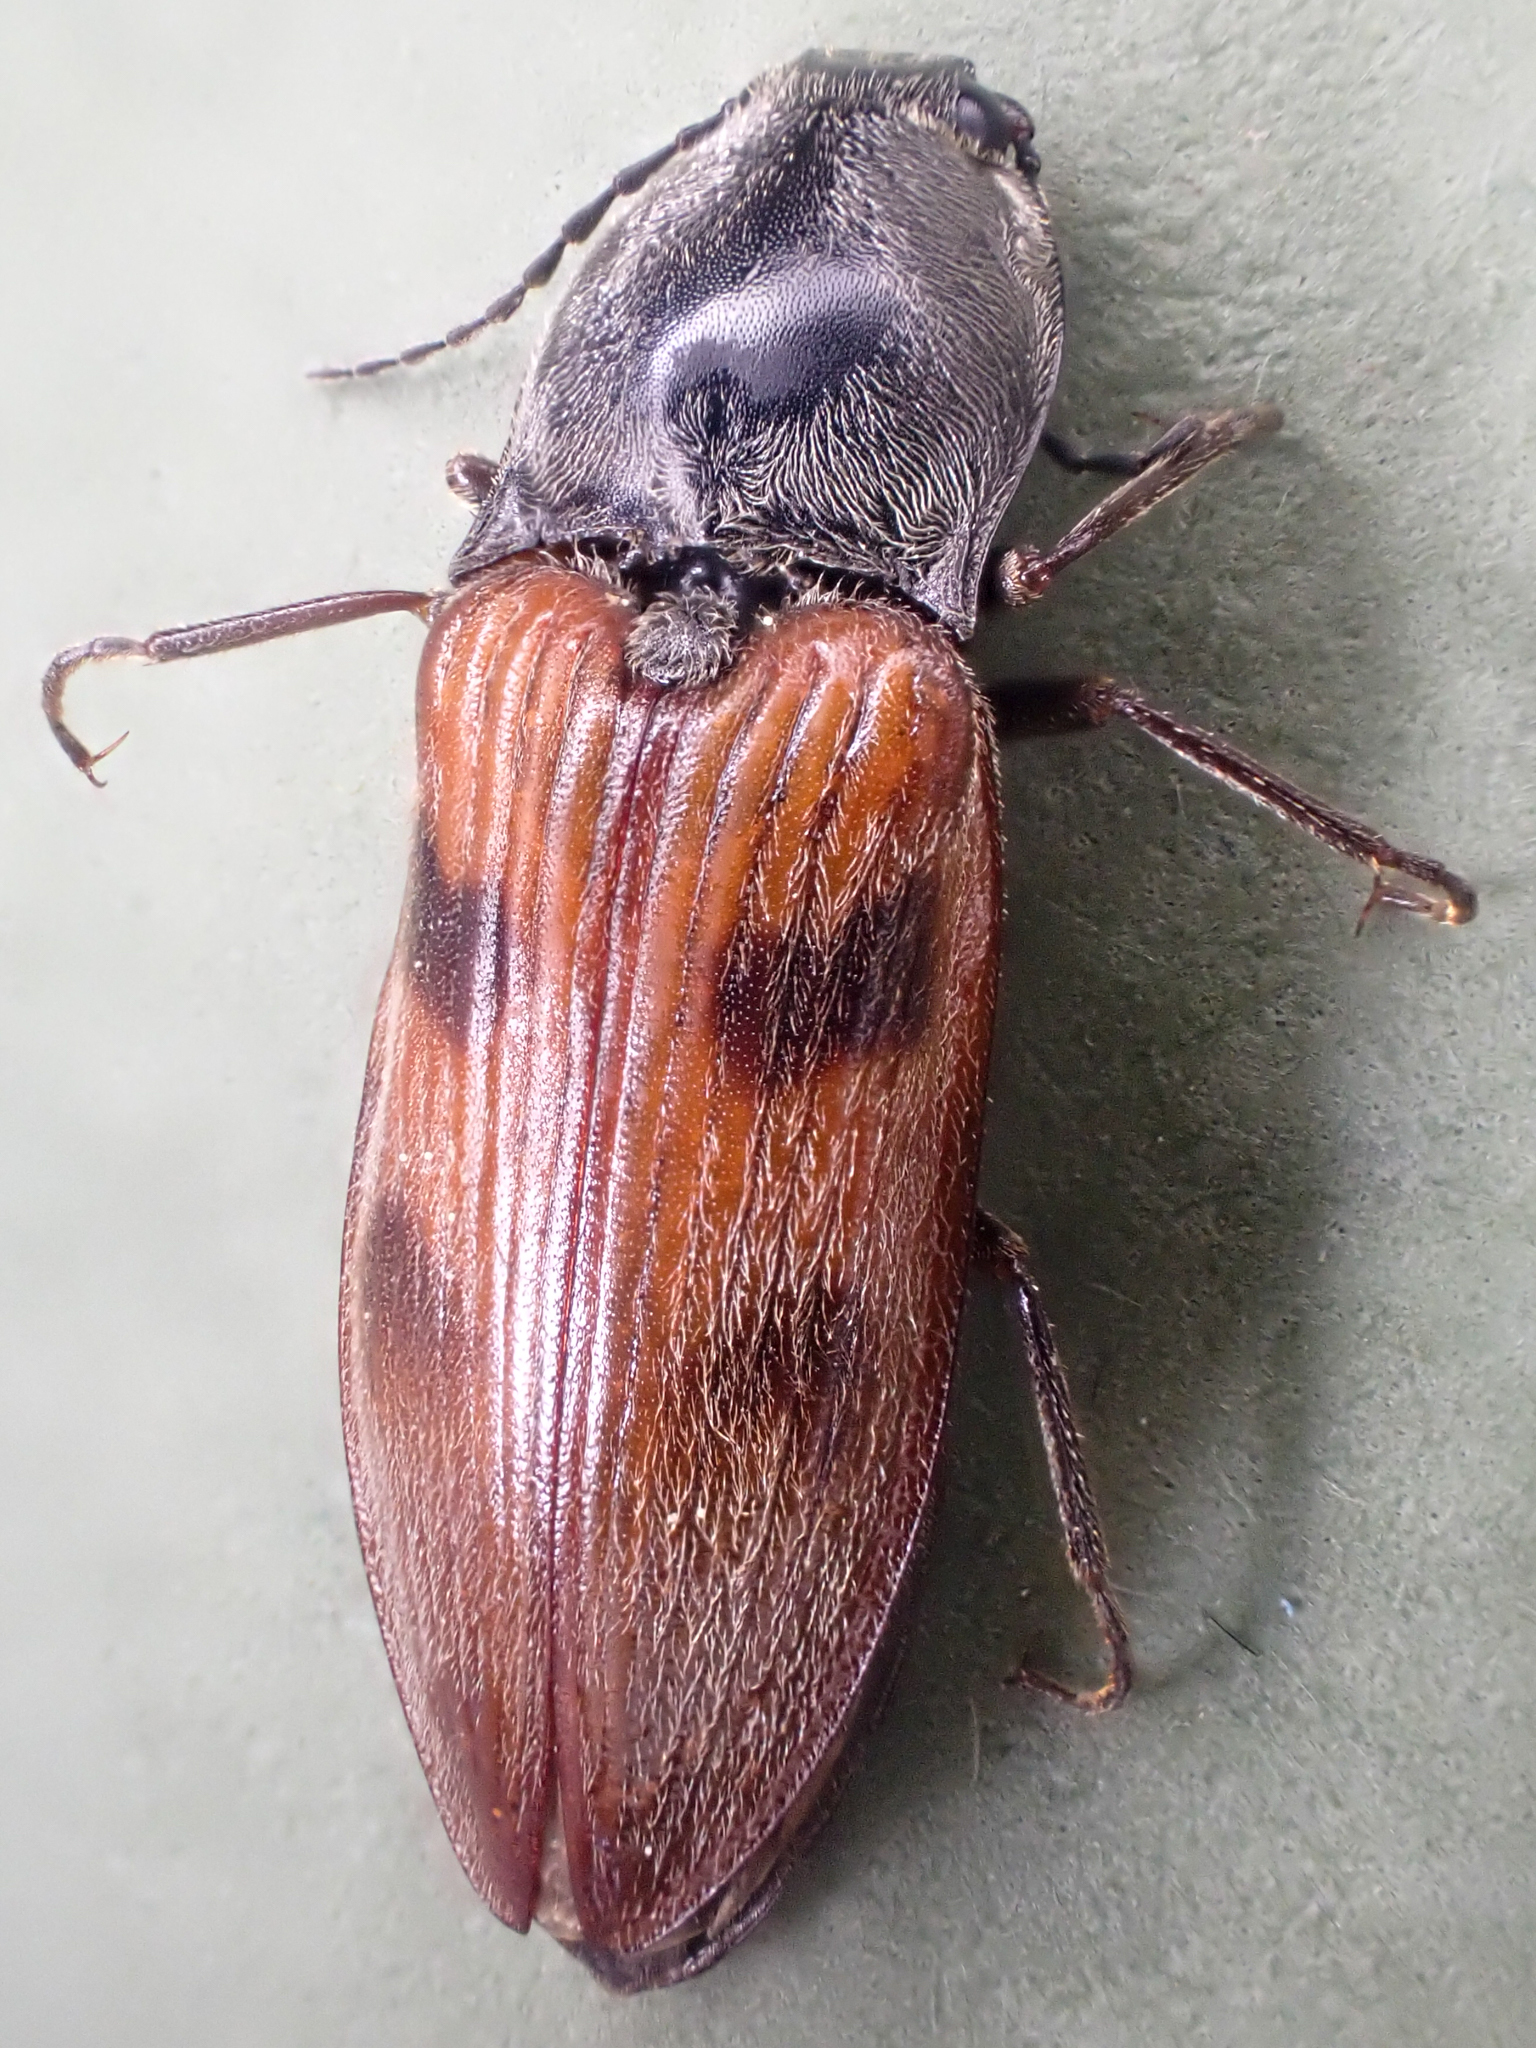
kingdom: Animalia
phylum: Arthropoda
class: Insecta
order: Coleoptera
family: Elateridae
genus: Stropenron
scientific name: Stropenron nigricollis
